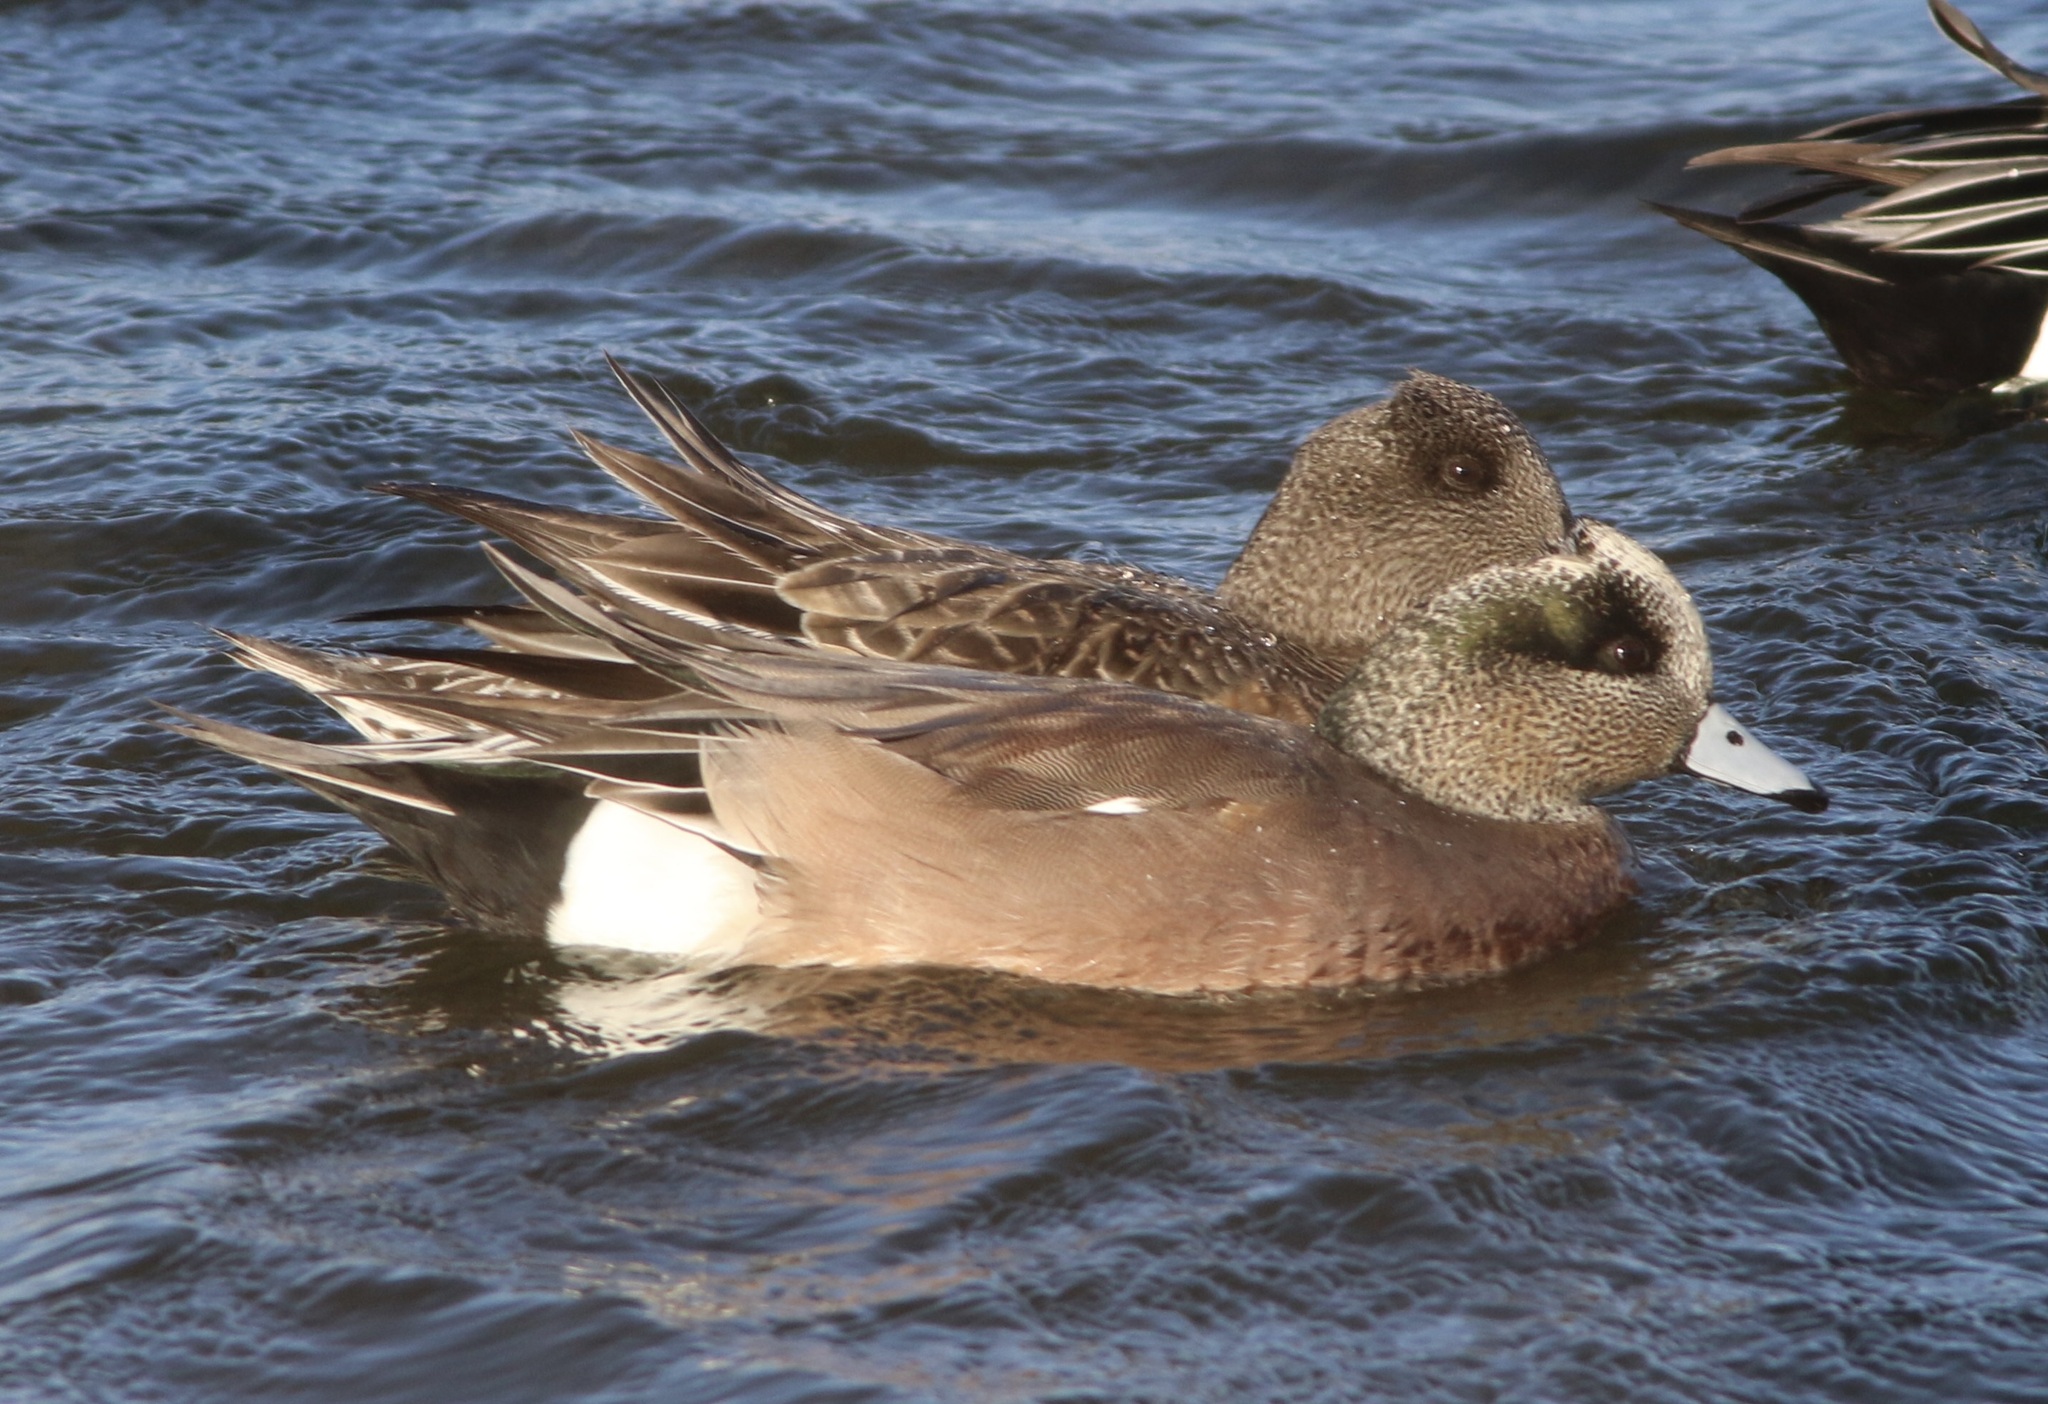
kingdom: Animalia
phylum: Chordata
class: Aves
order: Anseriformes
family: Anatidae
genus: Mareca
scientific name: Mareca americana
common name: American wigeon
